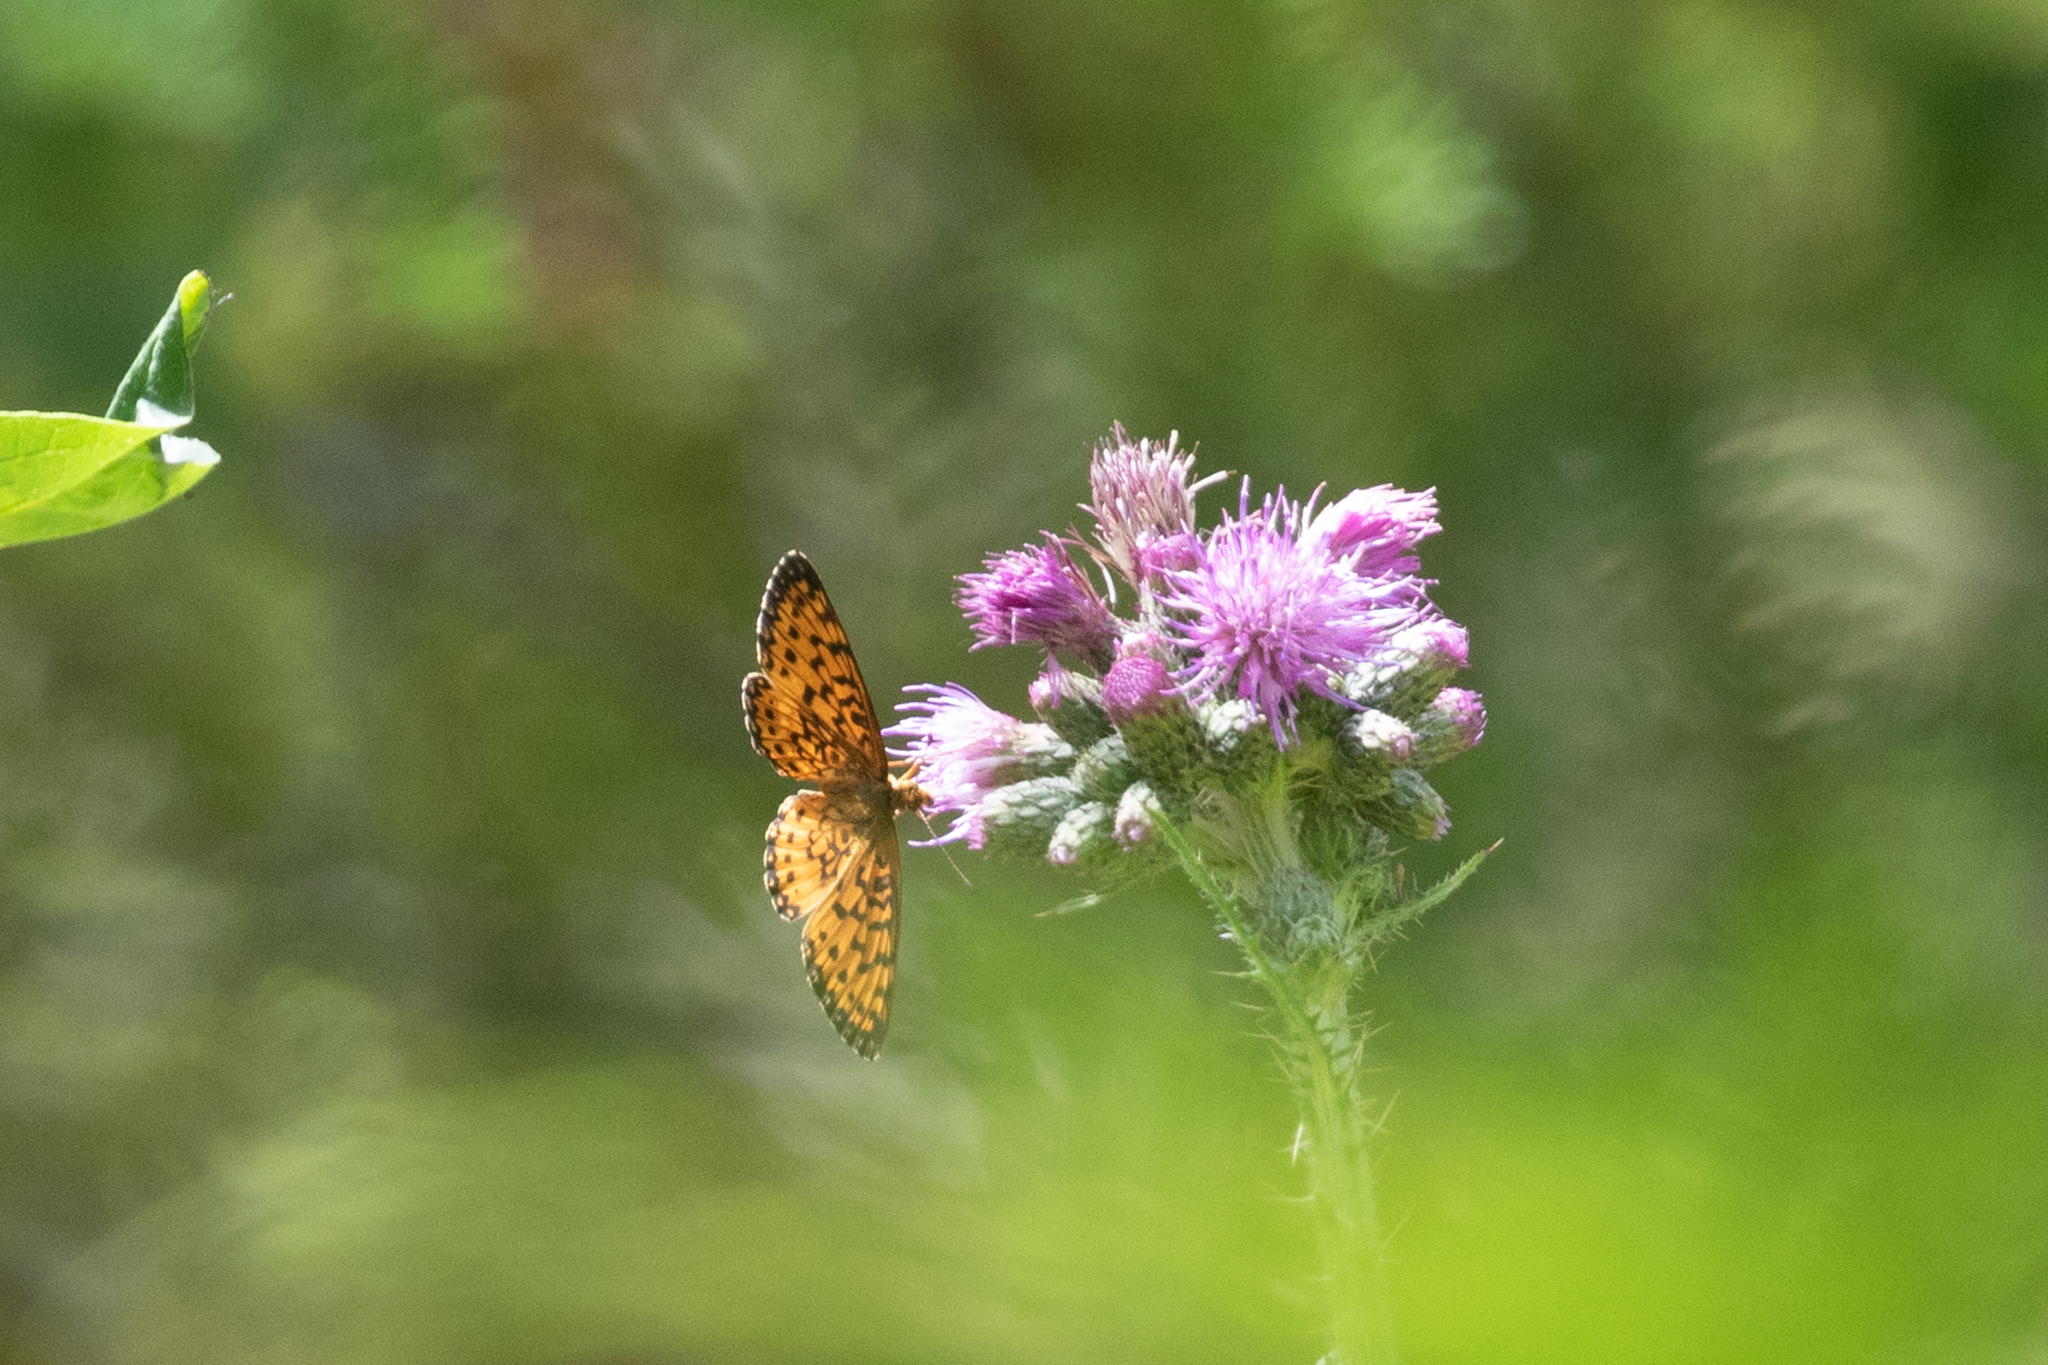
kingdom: Animalia
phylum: Arthropoda
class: Insecta
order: Lepidoptera
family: Nymphalidae
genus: Boloria
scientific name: Boloria
